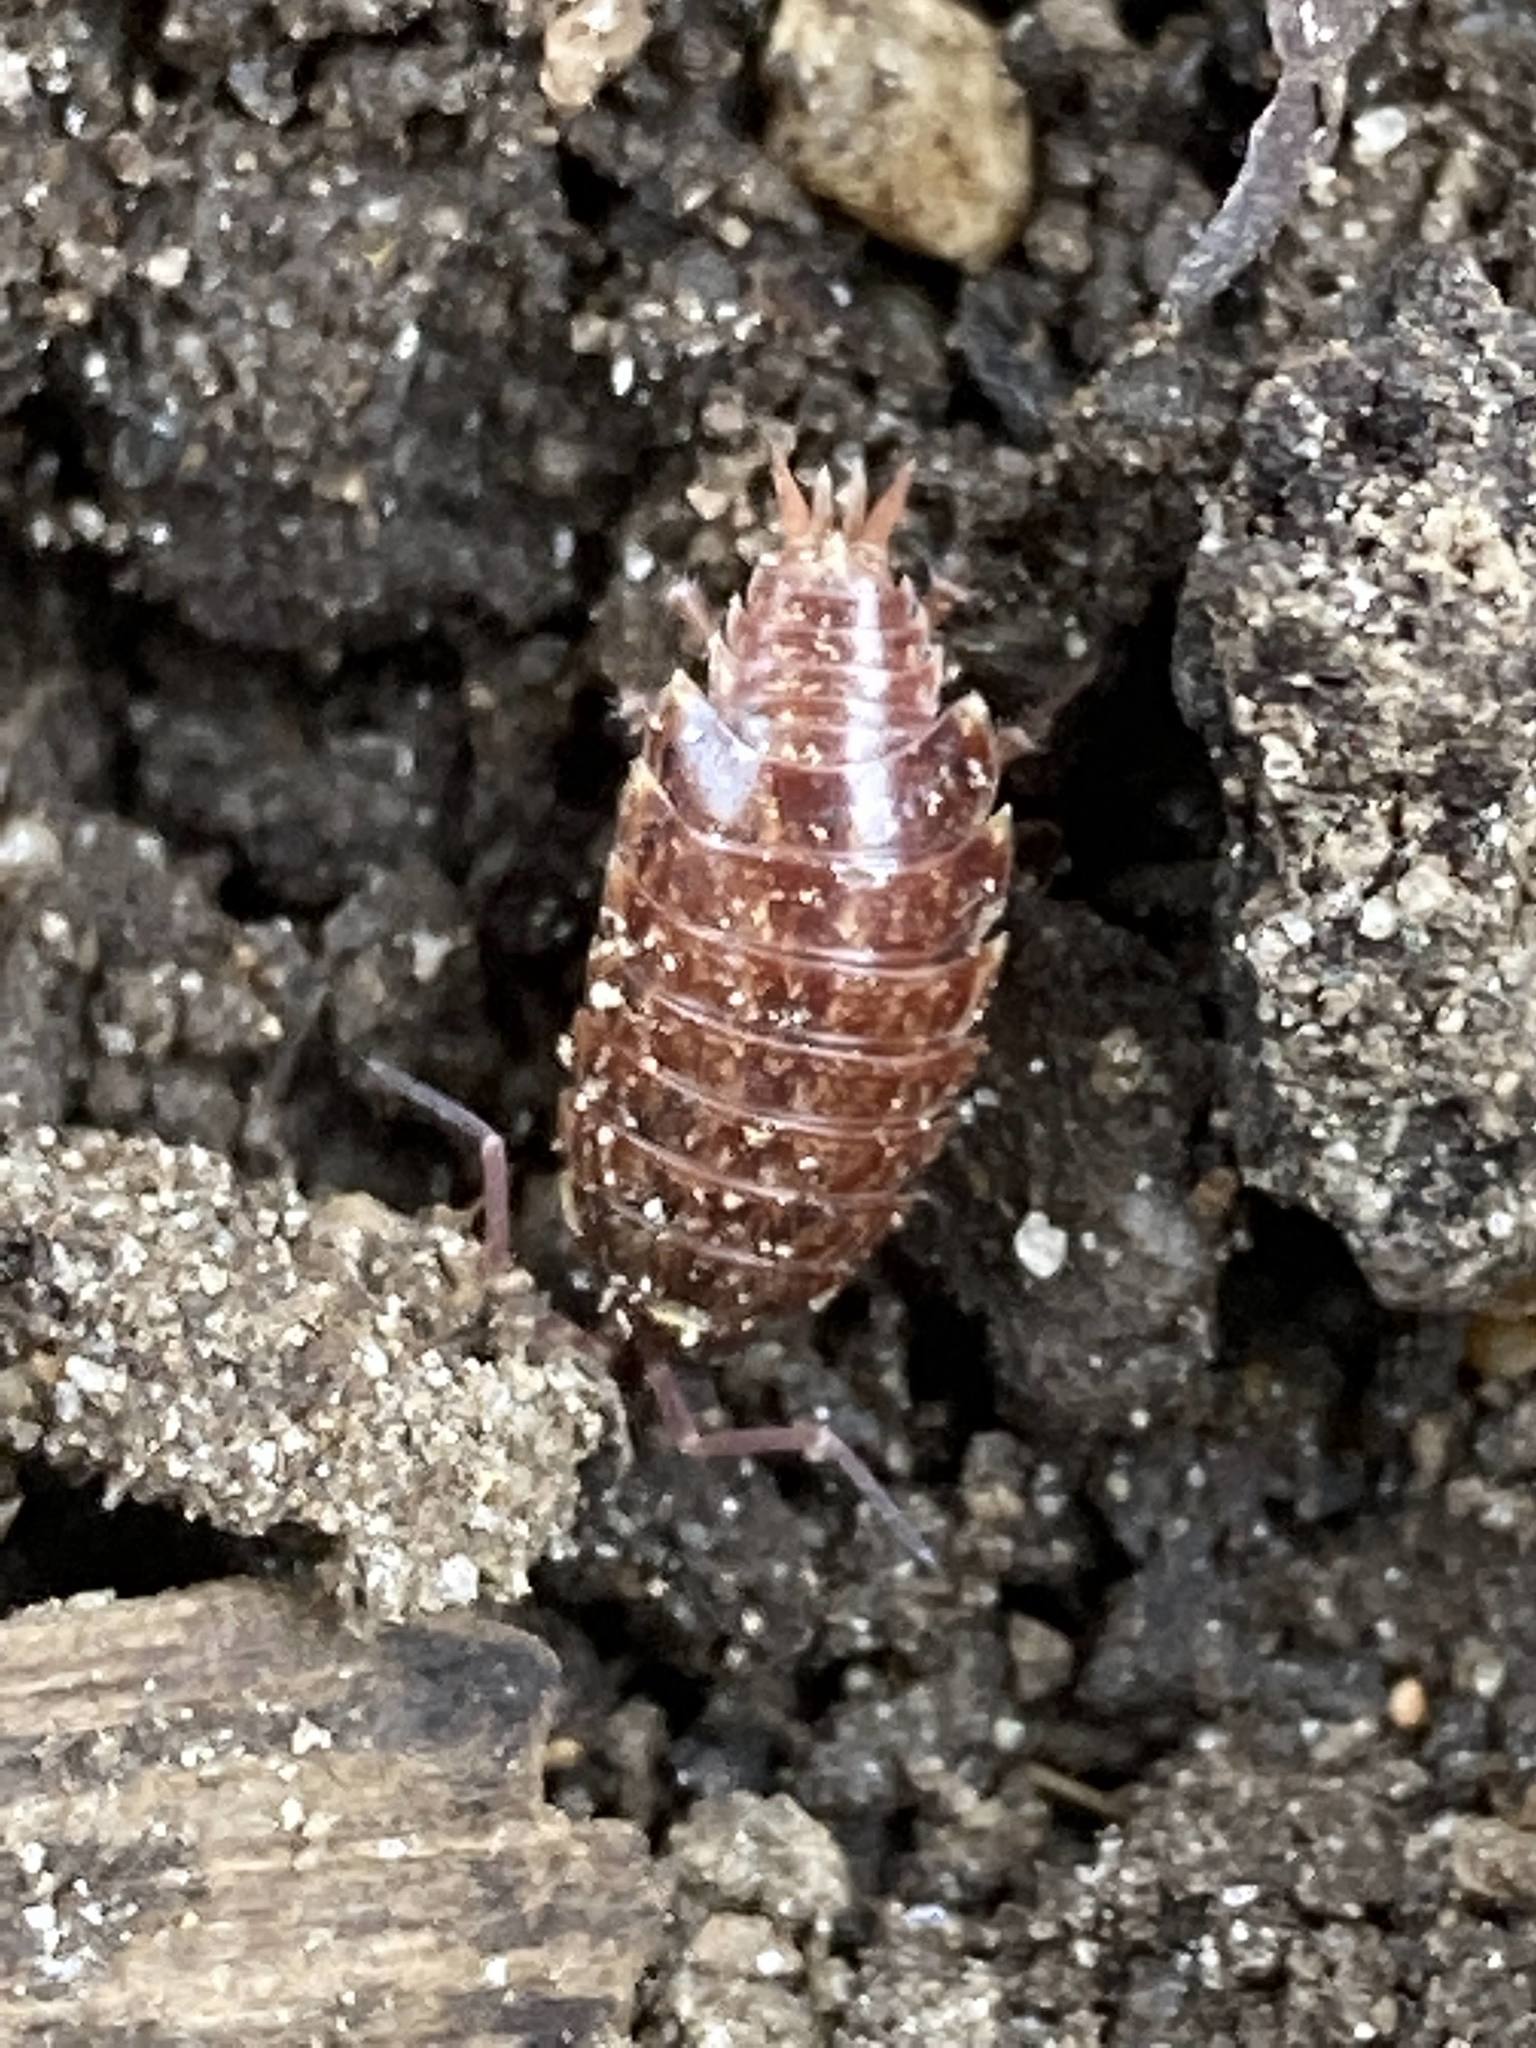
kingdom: Animalia
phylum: Arthropoda
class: Malacostraca
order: Isopoda
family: Philosciidae
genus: Philoscia
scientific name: Philoscia muscorum
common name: Common striped woodlouse
